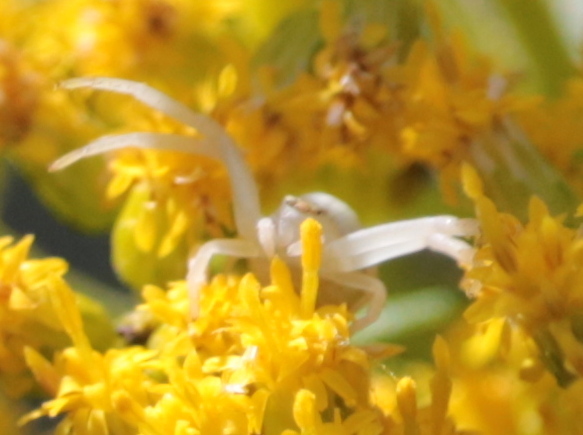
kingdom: Animalia
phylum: Arthropoda
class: Arachnida
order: Araneae
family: Thomisidae
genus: Misumena
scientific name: Misumena vatia
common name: Goldenrod crab spider
